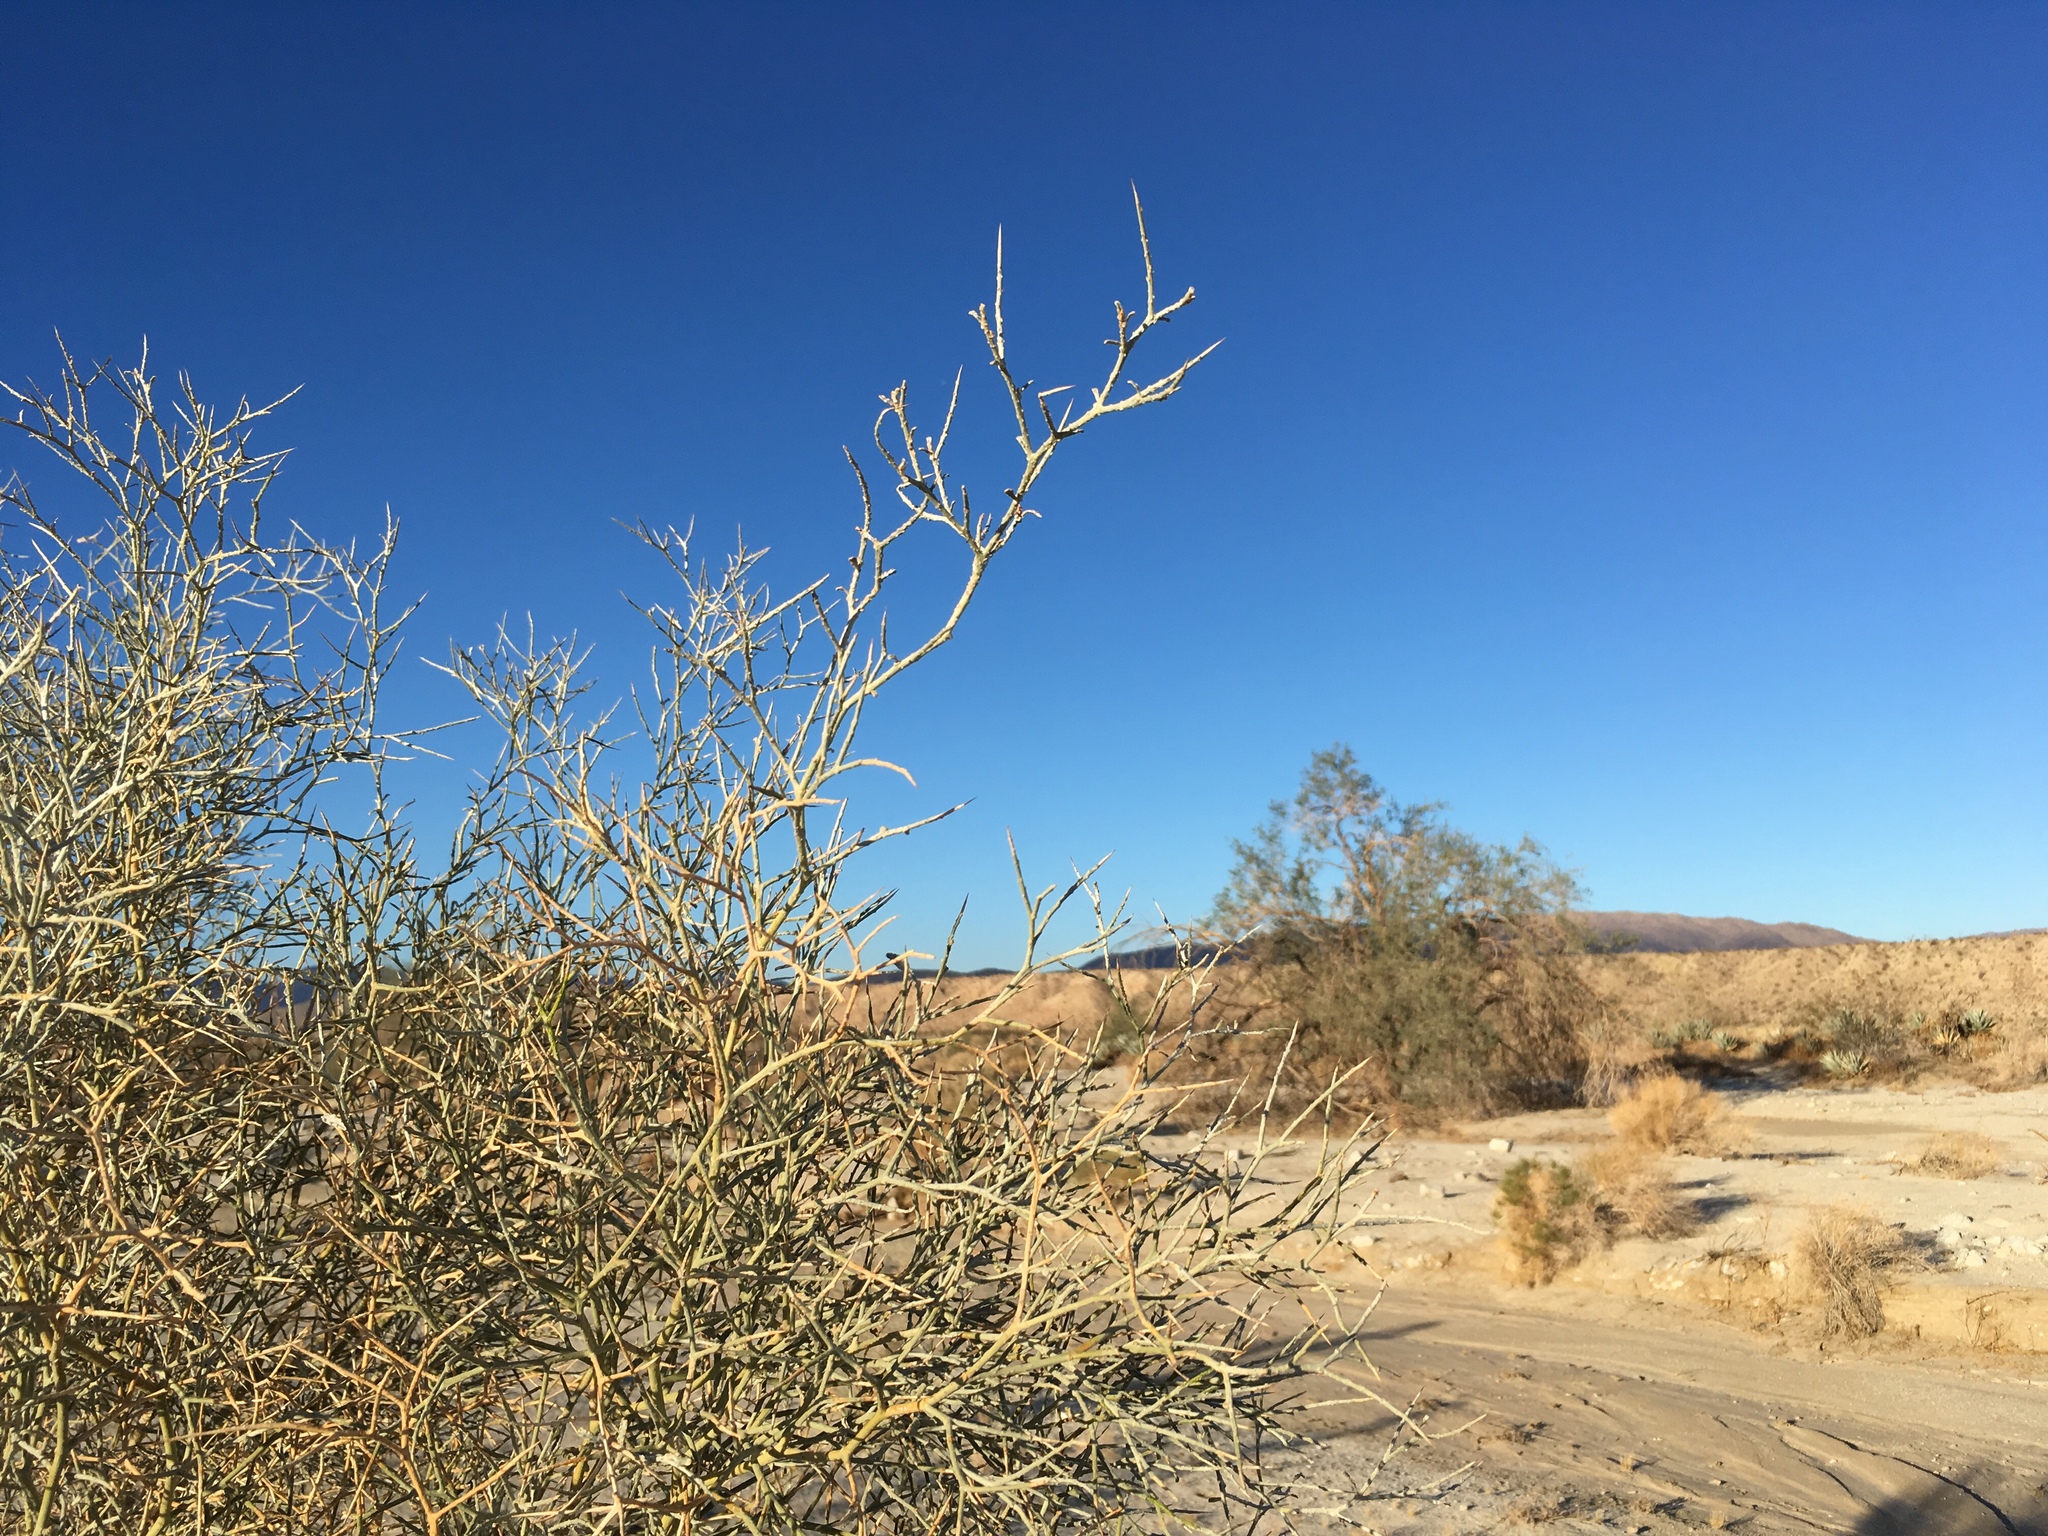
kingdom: Plantae
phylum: Tracheophyta
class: Magnoliopsida
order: Fabales
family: Fabaceae
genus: Psorothamnus
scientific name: Psorothamnus spinosus
